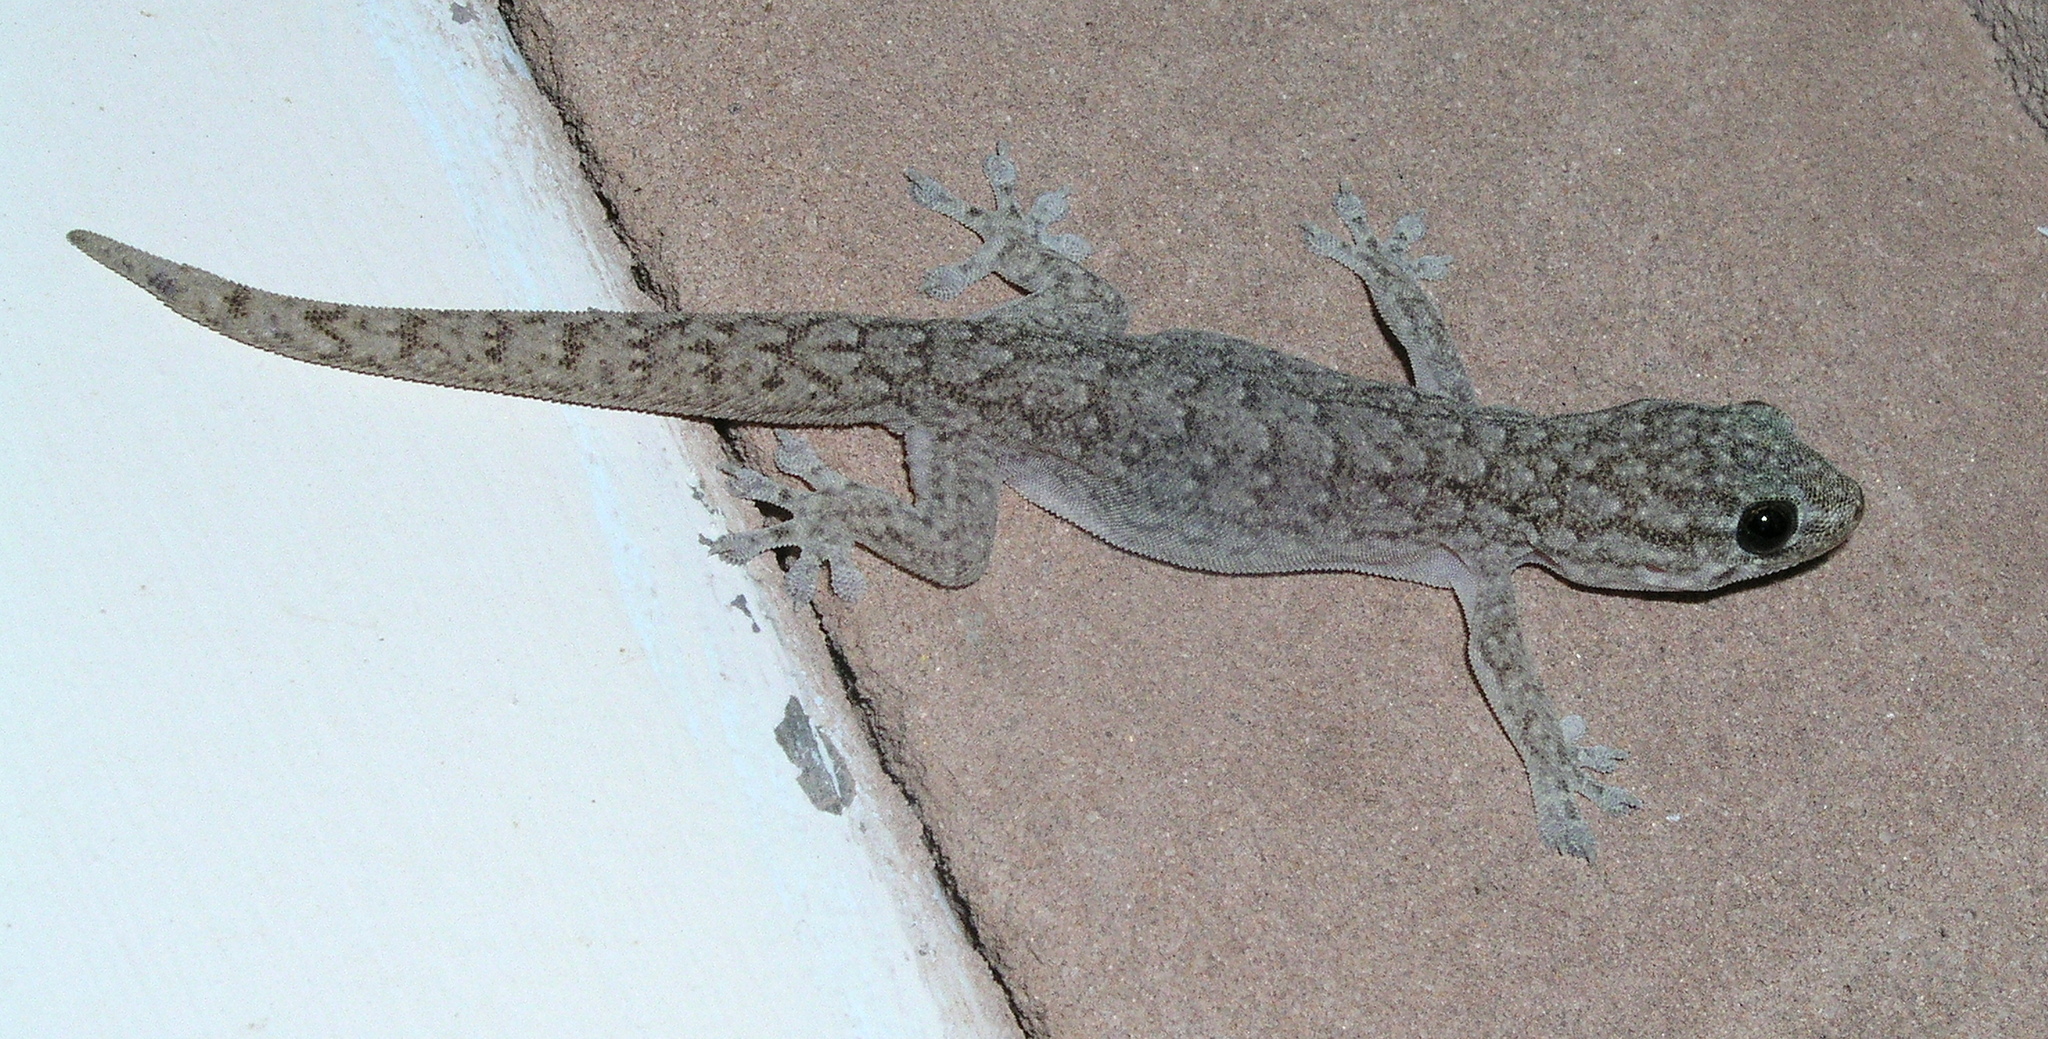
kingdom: Animalia
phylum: Chordata
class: Squamata
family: Gekkonidae
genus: Gehyra
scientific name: Gehyra versicolor
